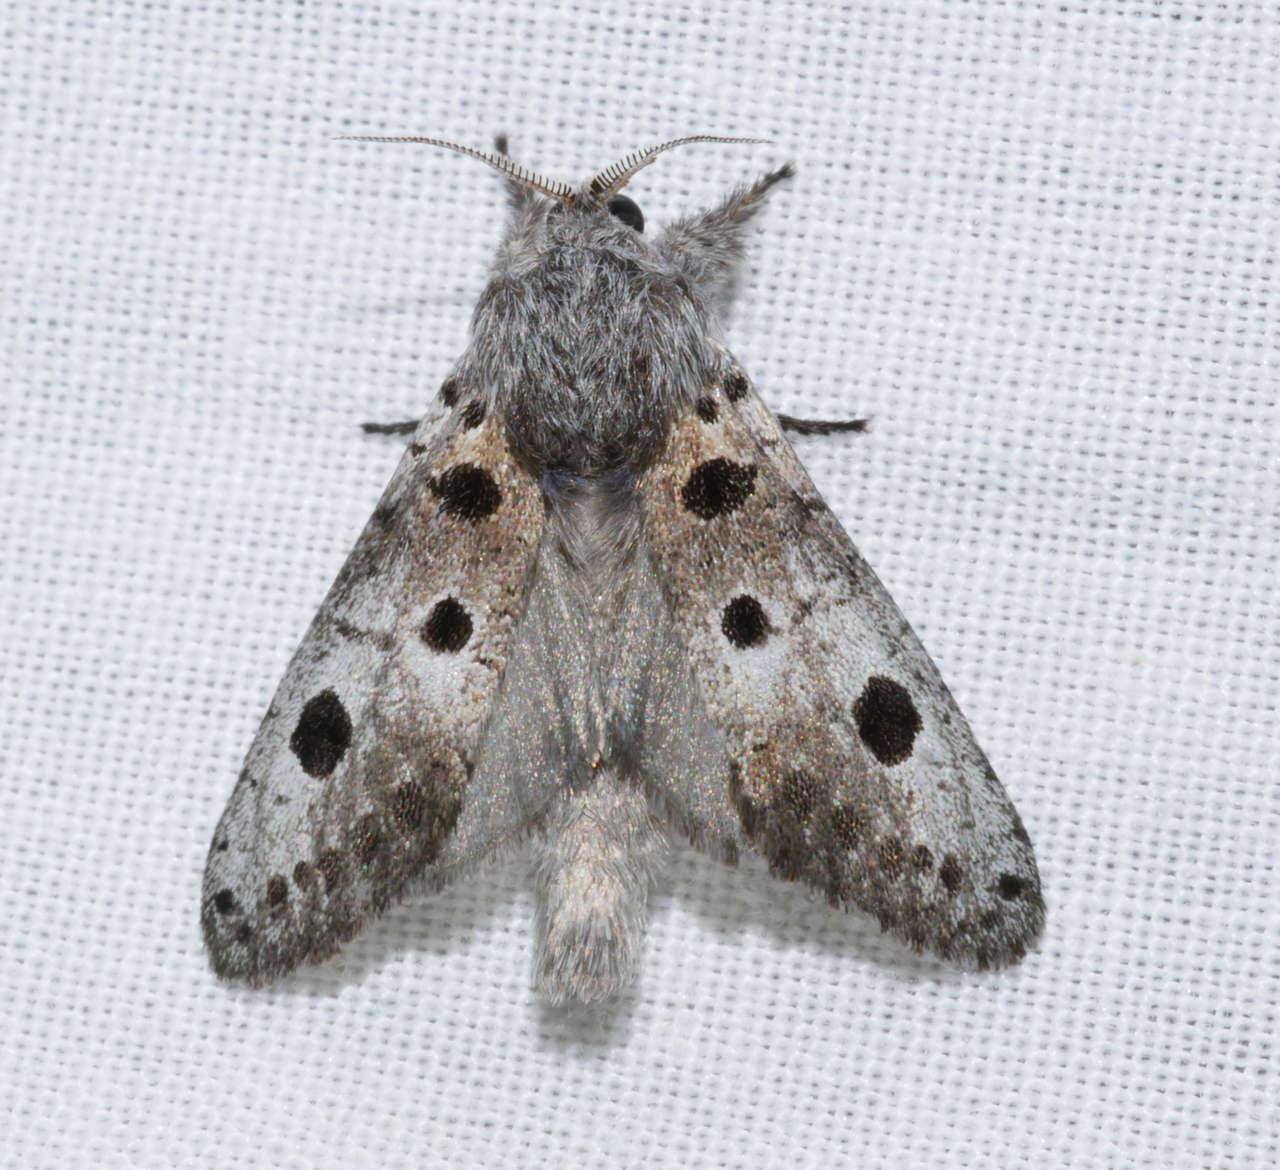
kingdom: Animalia
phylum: Arthropoda
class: Insecta
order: Lepidoptera
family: Cossidae
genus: Sympycnodes
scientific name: Sympycnodes dunnorum
